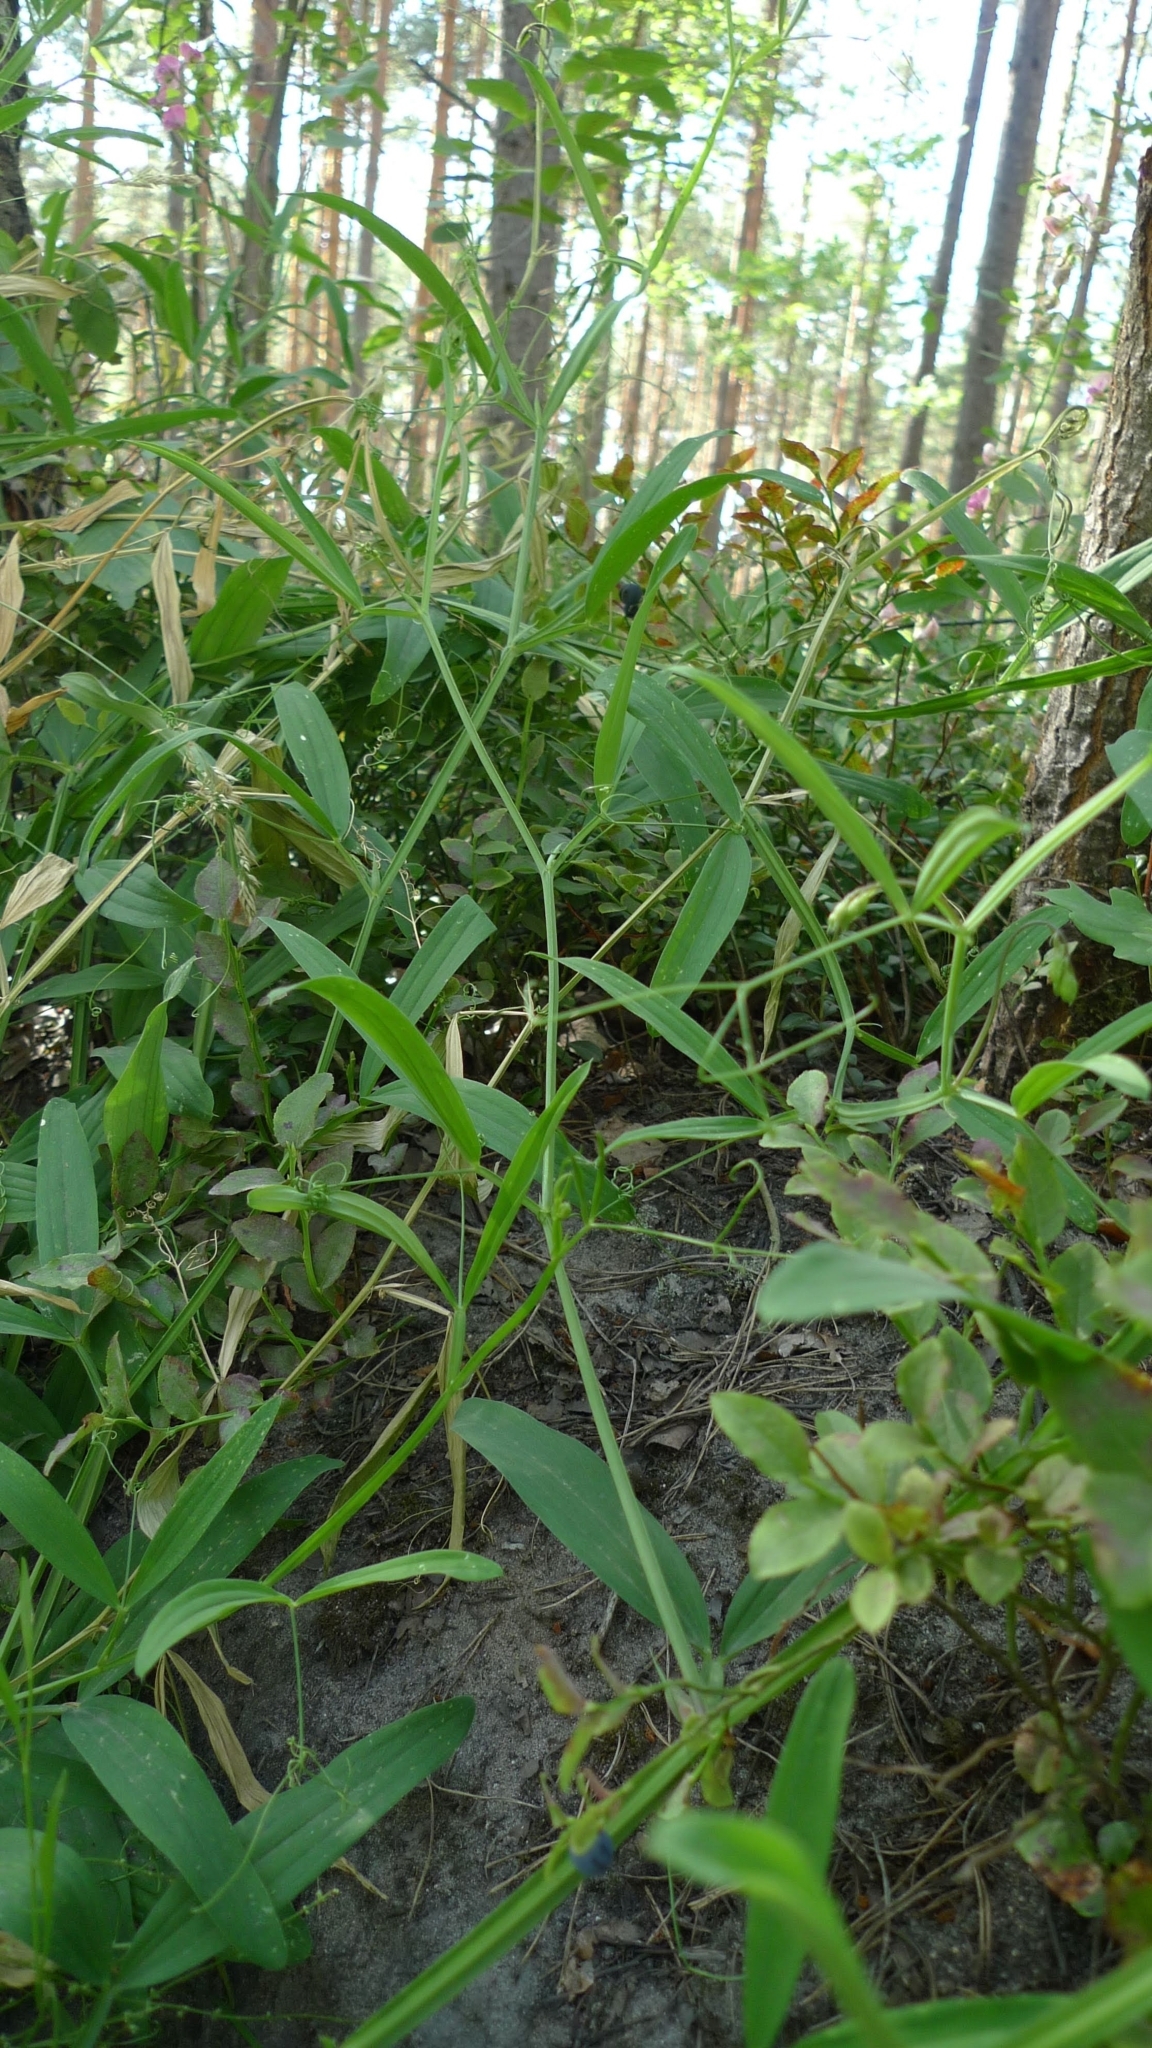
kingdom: Plantae
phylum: Tracheophyta
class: Magnoliopsida
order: Fabales
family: Fabaceae
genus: Lathyrus
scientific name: Lathyrus sylvestris
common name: Flat pea
